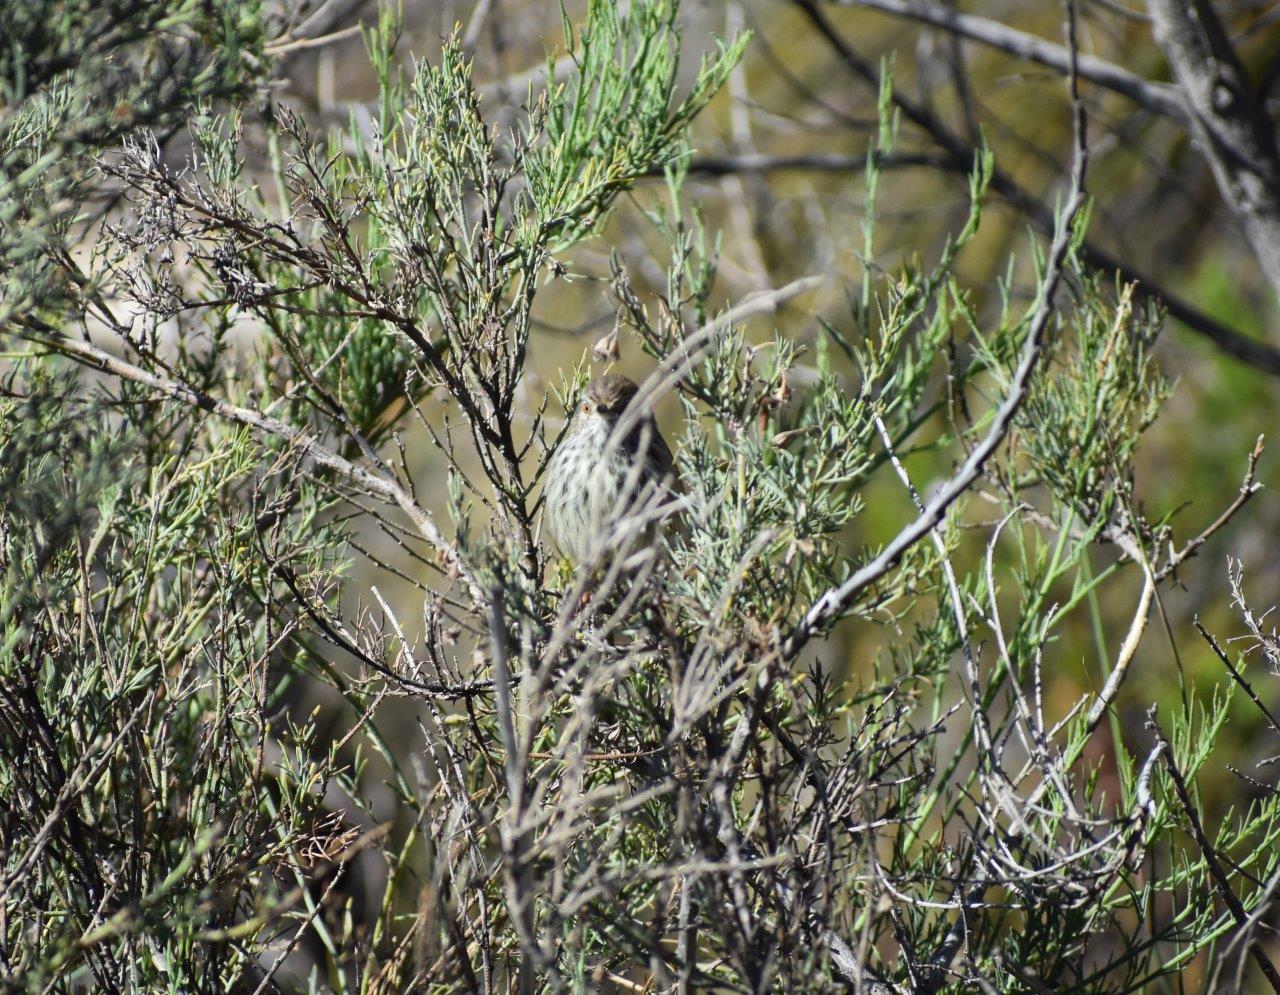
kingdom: Animalia
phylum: Chordata
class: Aves
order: Passeriformes
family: Cisticolidae
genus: Prinia
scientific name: Prinia maculosa
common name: Karoo prinia
